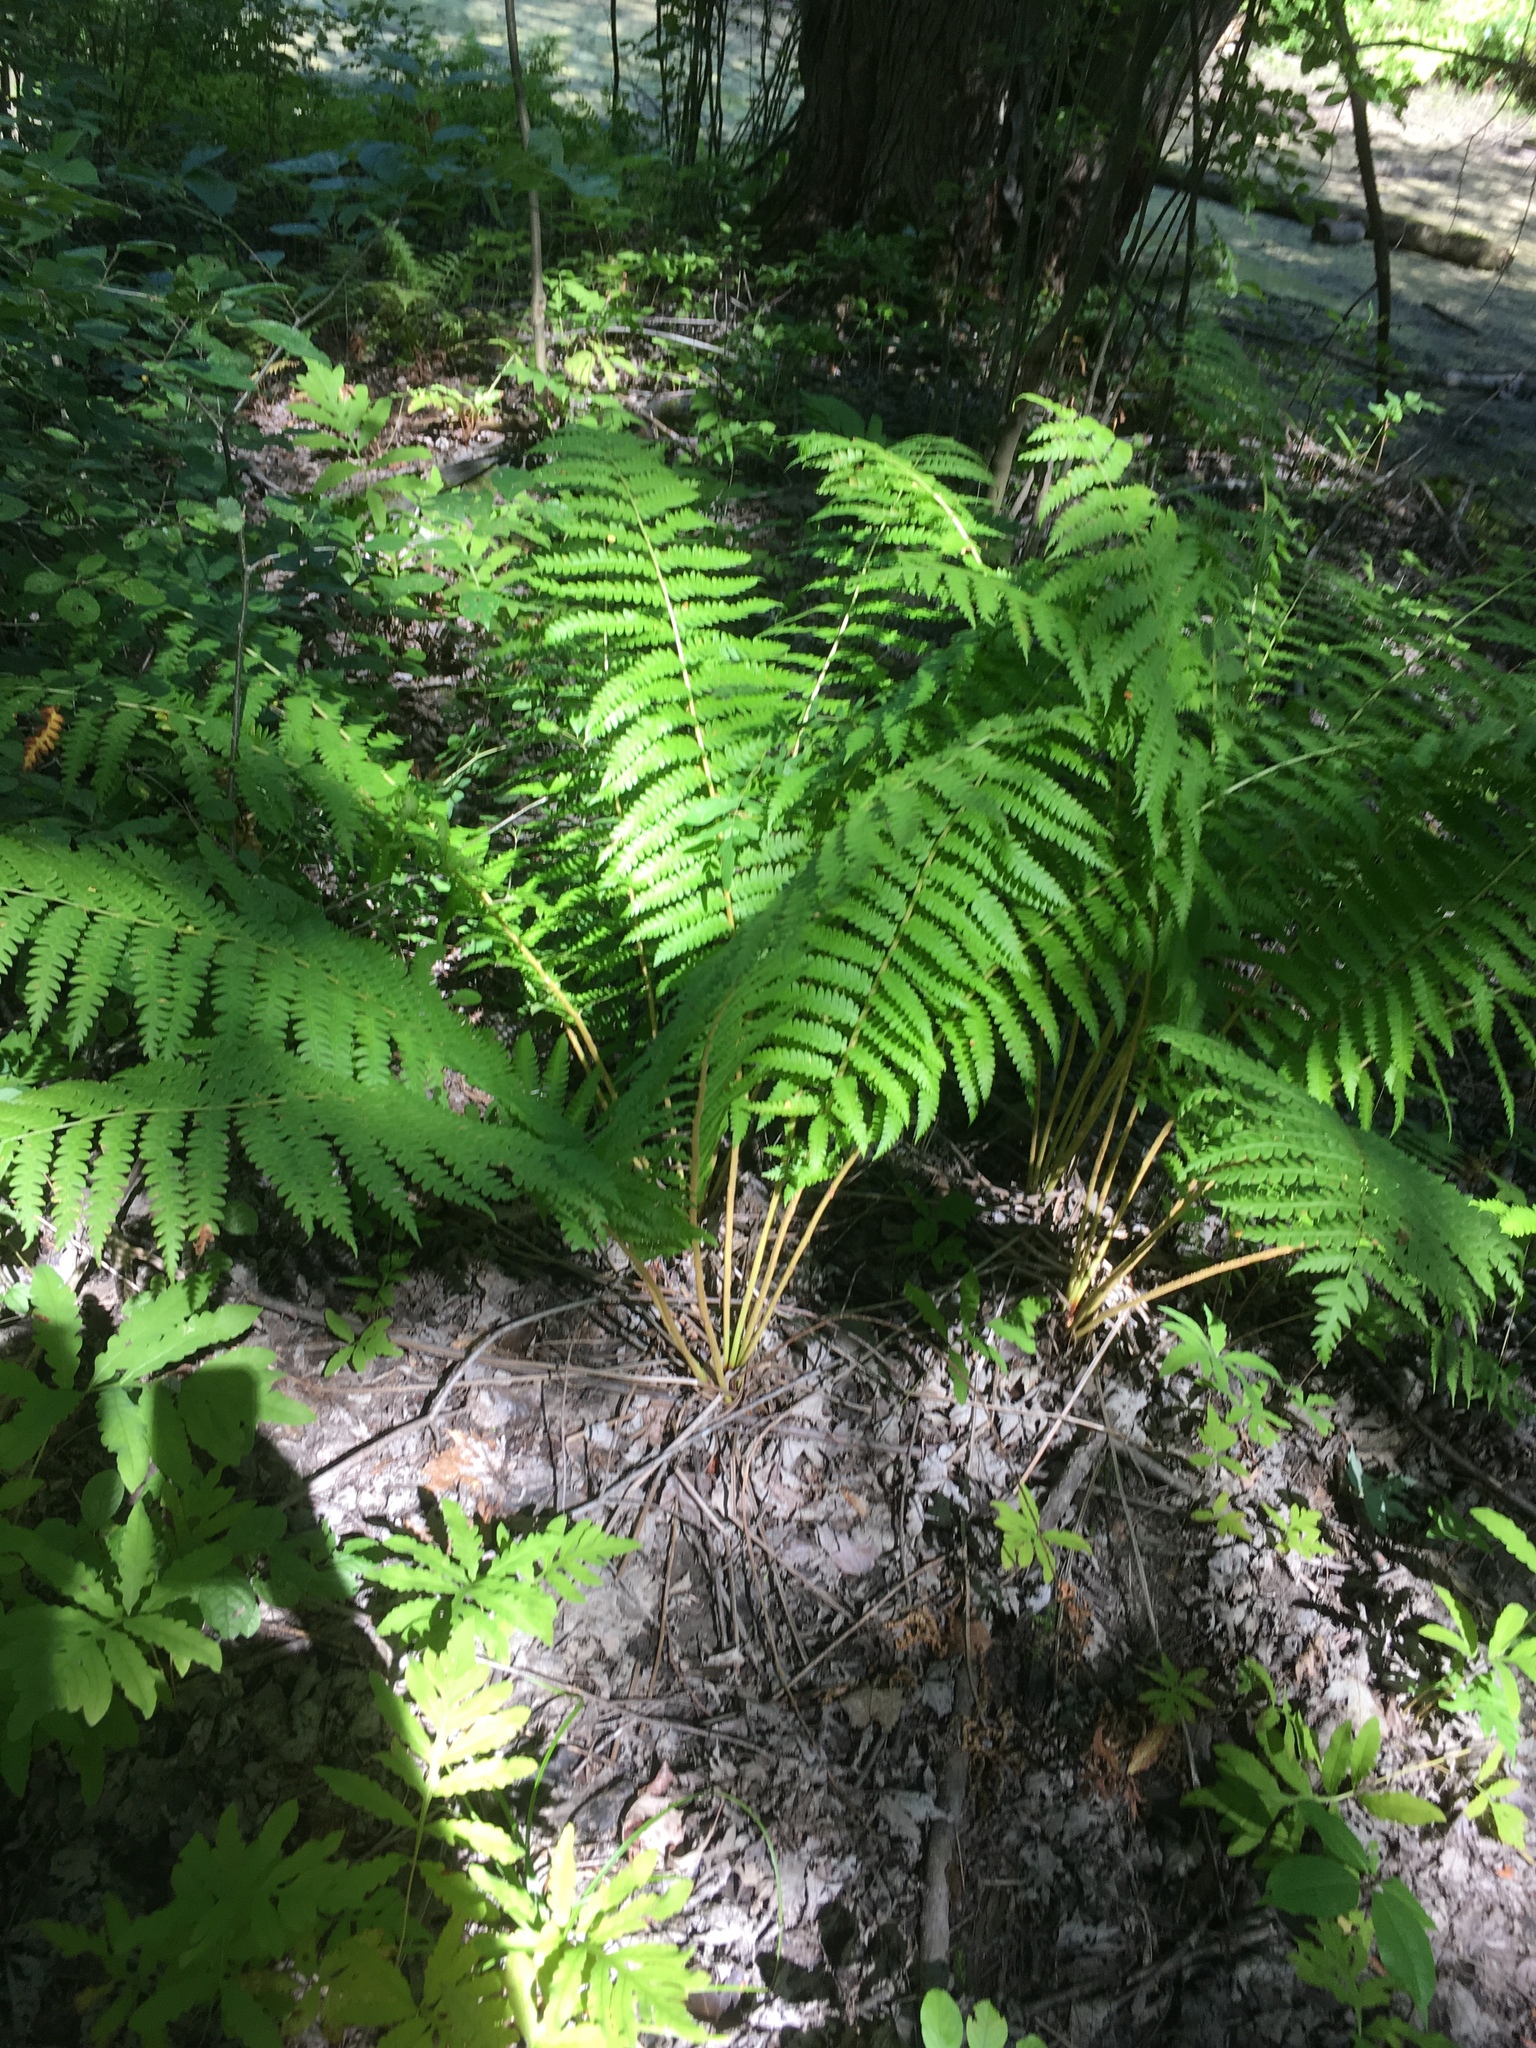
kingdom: Plantae
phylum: Tracheophyta
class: Polypodiopsida
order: Osmundales
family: Osmundaceae
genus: Osmundastrum
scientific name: Osmundastrum cinnamomeum
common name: Cinnamon fern
